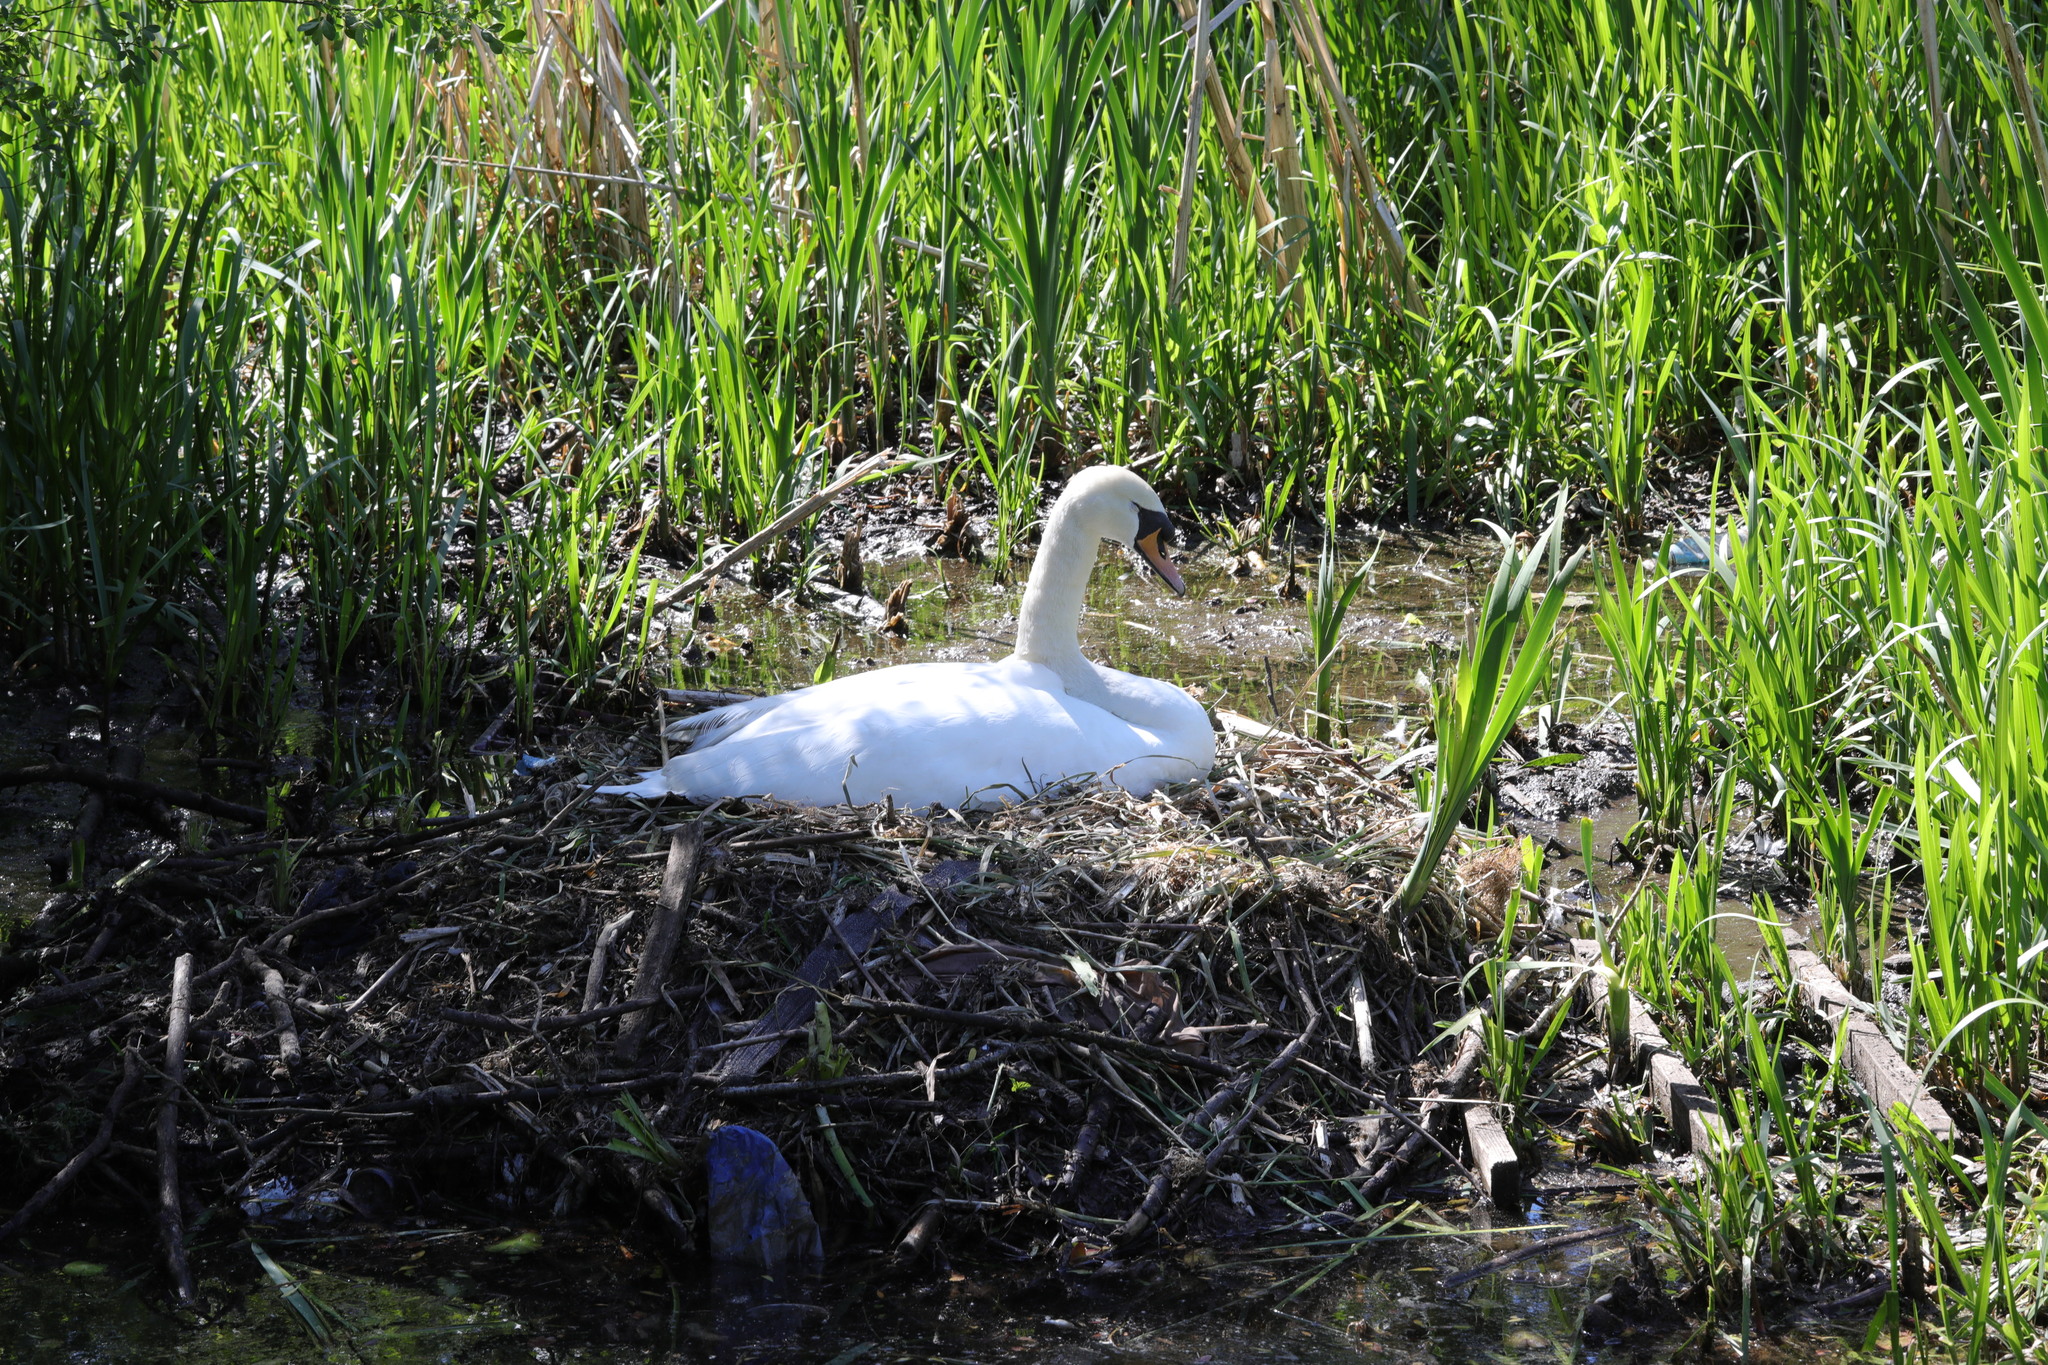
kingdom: Animalia
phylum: Chordata
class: Aves
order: Anseriformes
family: Anatidae
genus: Cygnus
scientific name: Cygnus olor
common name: Mute swan
